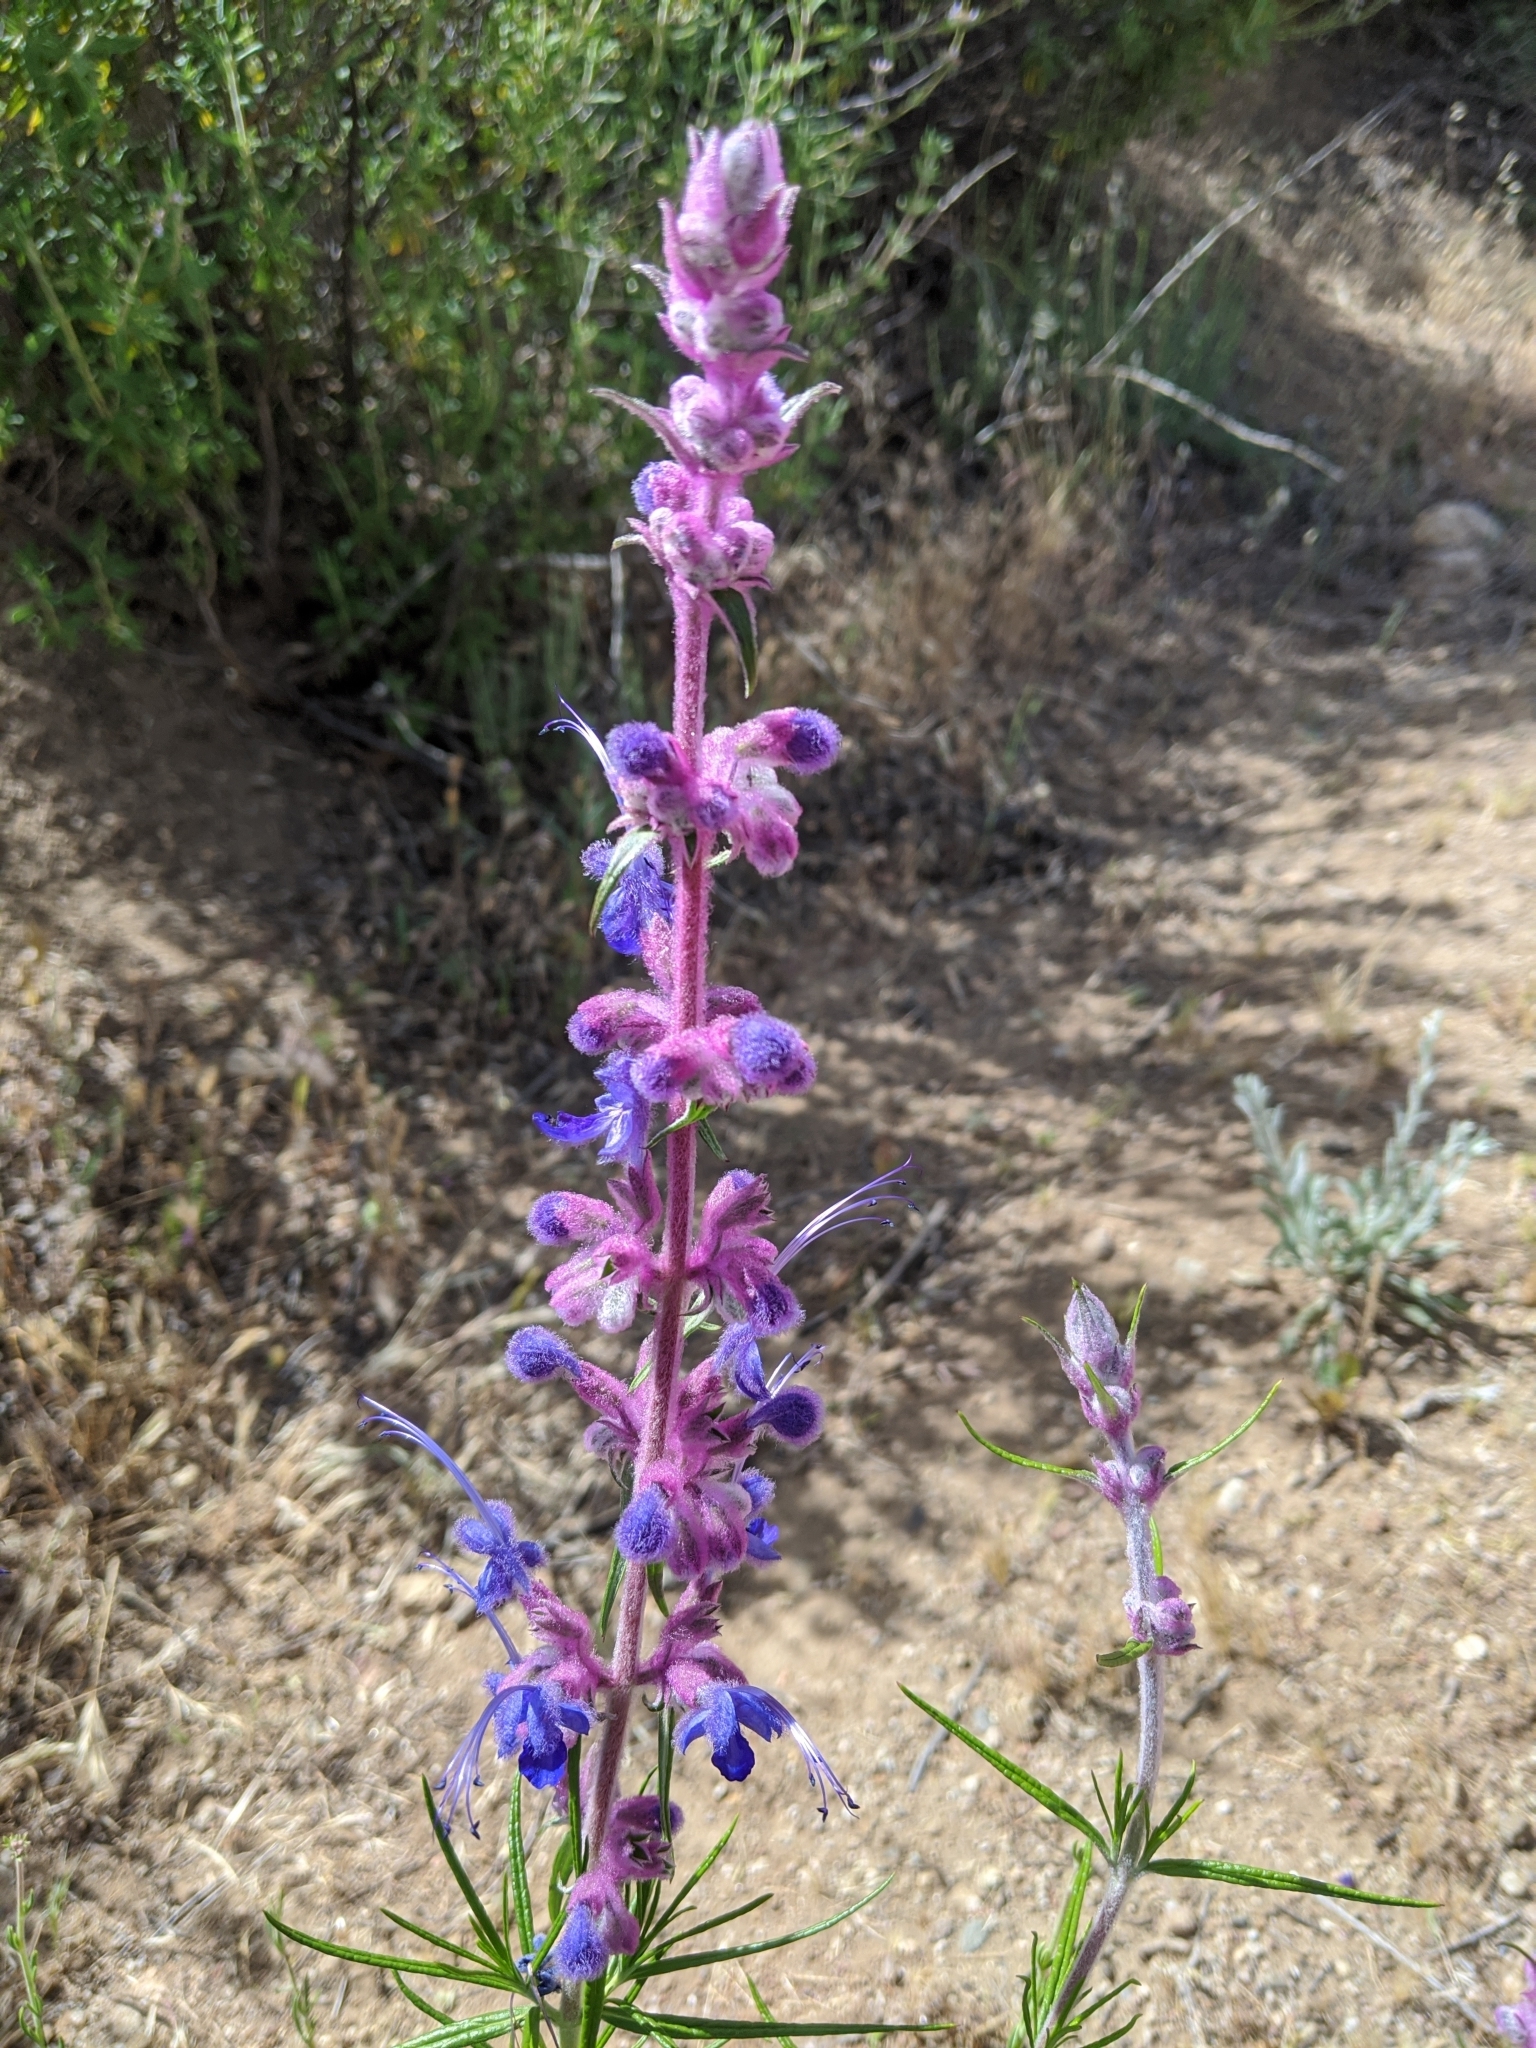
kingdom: Plantae
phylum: Tracheophyta
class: Magnoliopsida
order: Lamiales
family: Lamiaceae
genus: Trichostema
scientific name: Trichostema lanatum
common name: Woolly bluecurls
